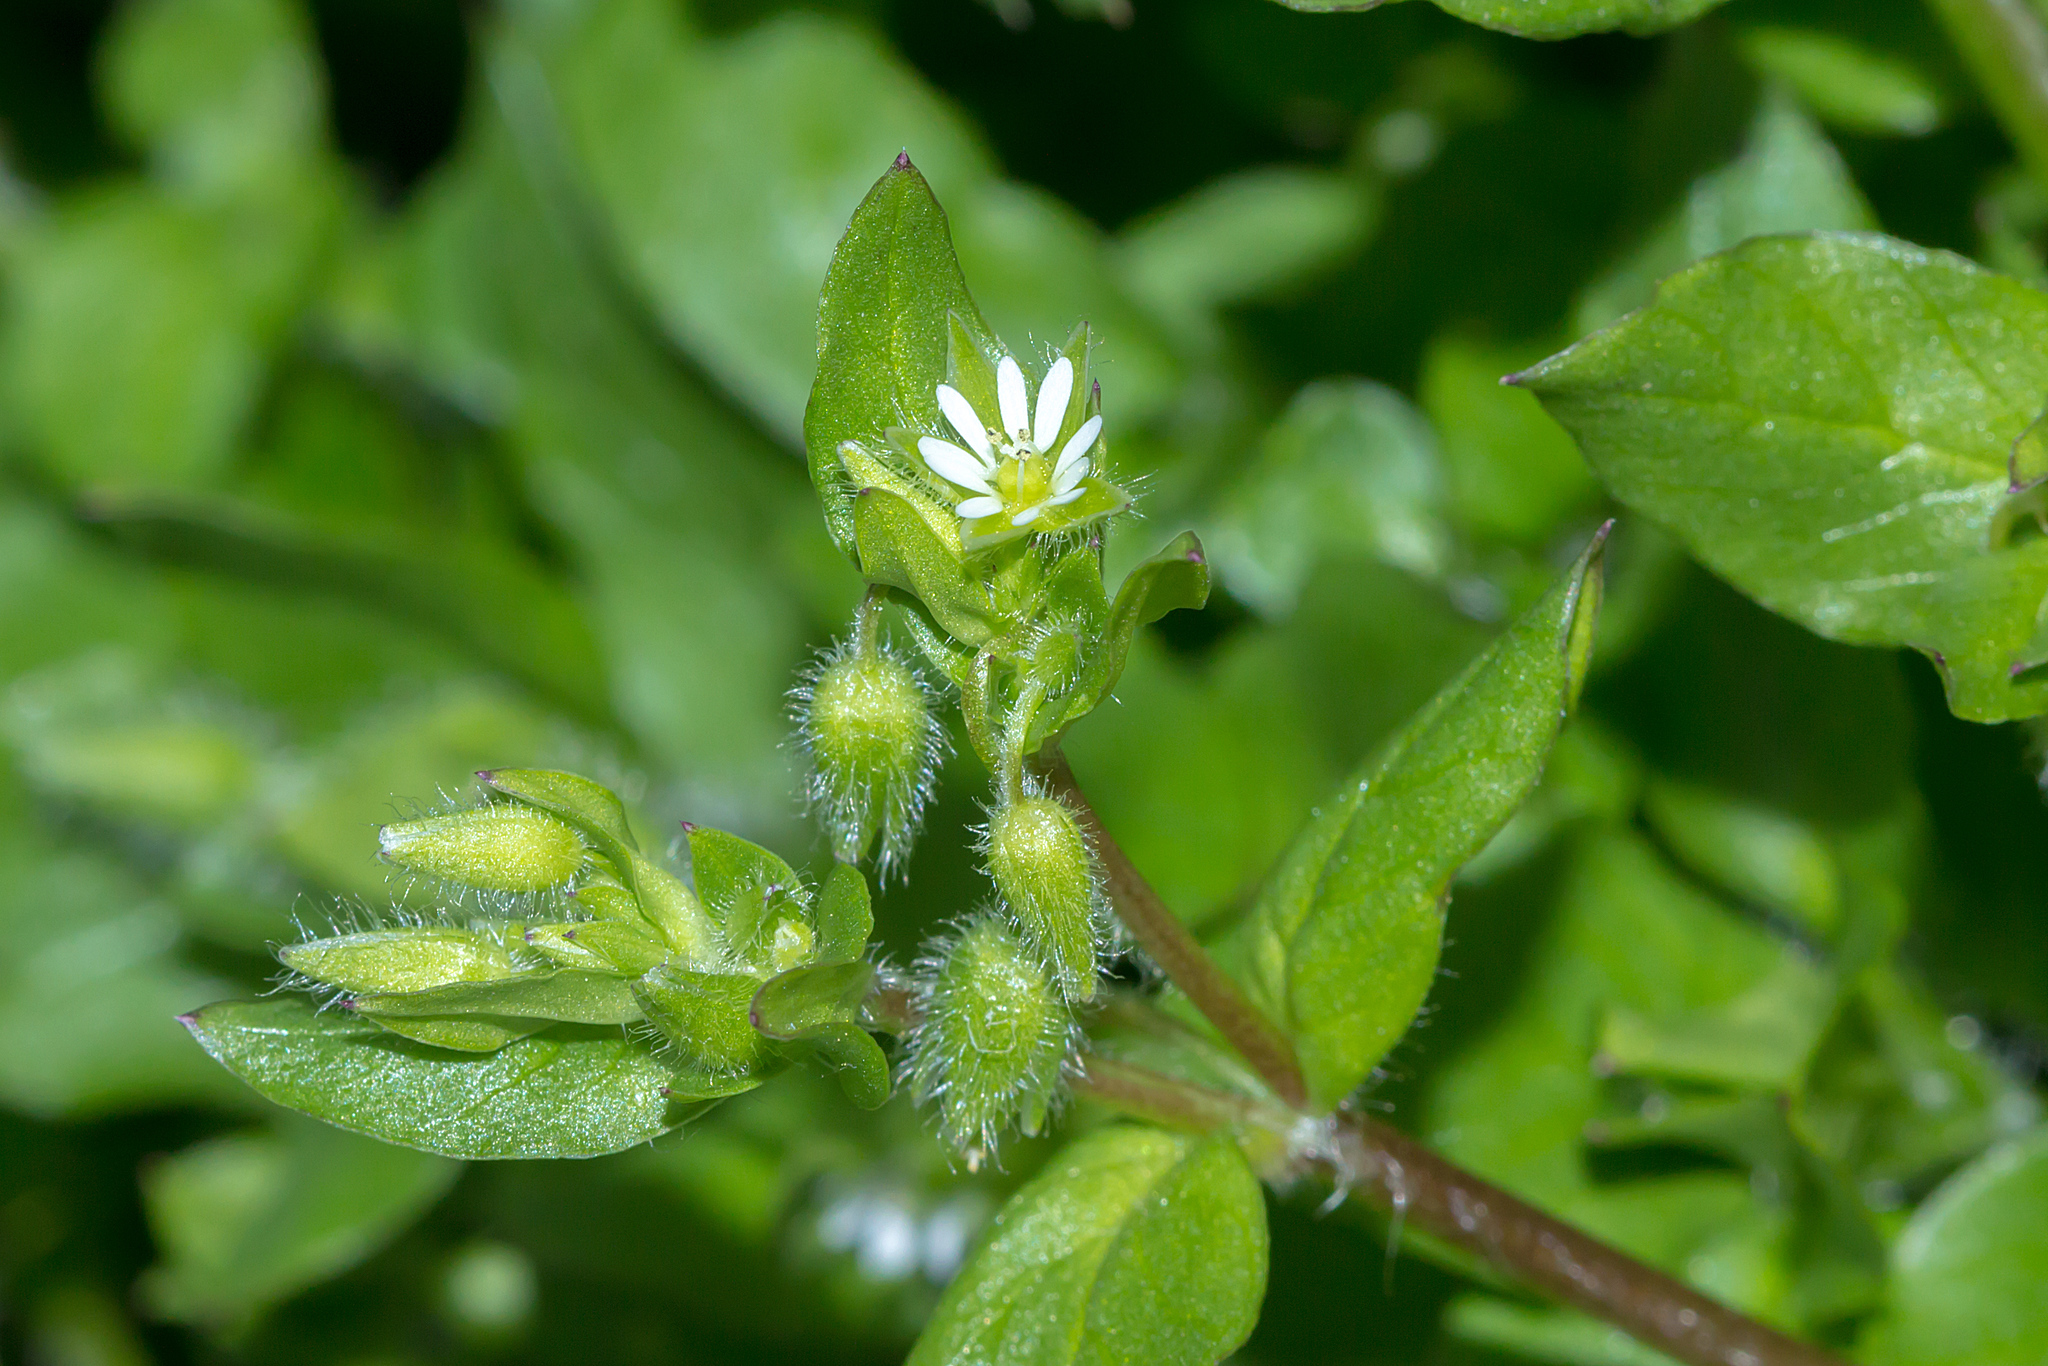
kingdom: Plantae
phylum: Tracheophyta
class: Magnoliopsida
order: Caryophyllales
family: Caryophyllaceae
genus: Stellaria
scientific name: Stellaria media
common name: Common chickweed
